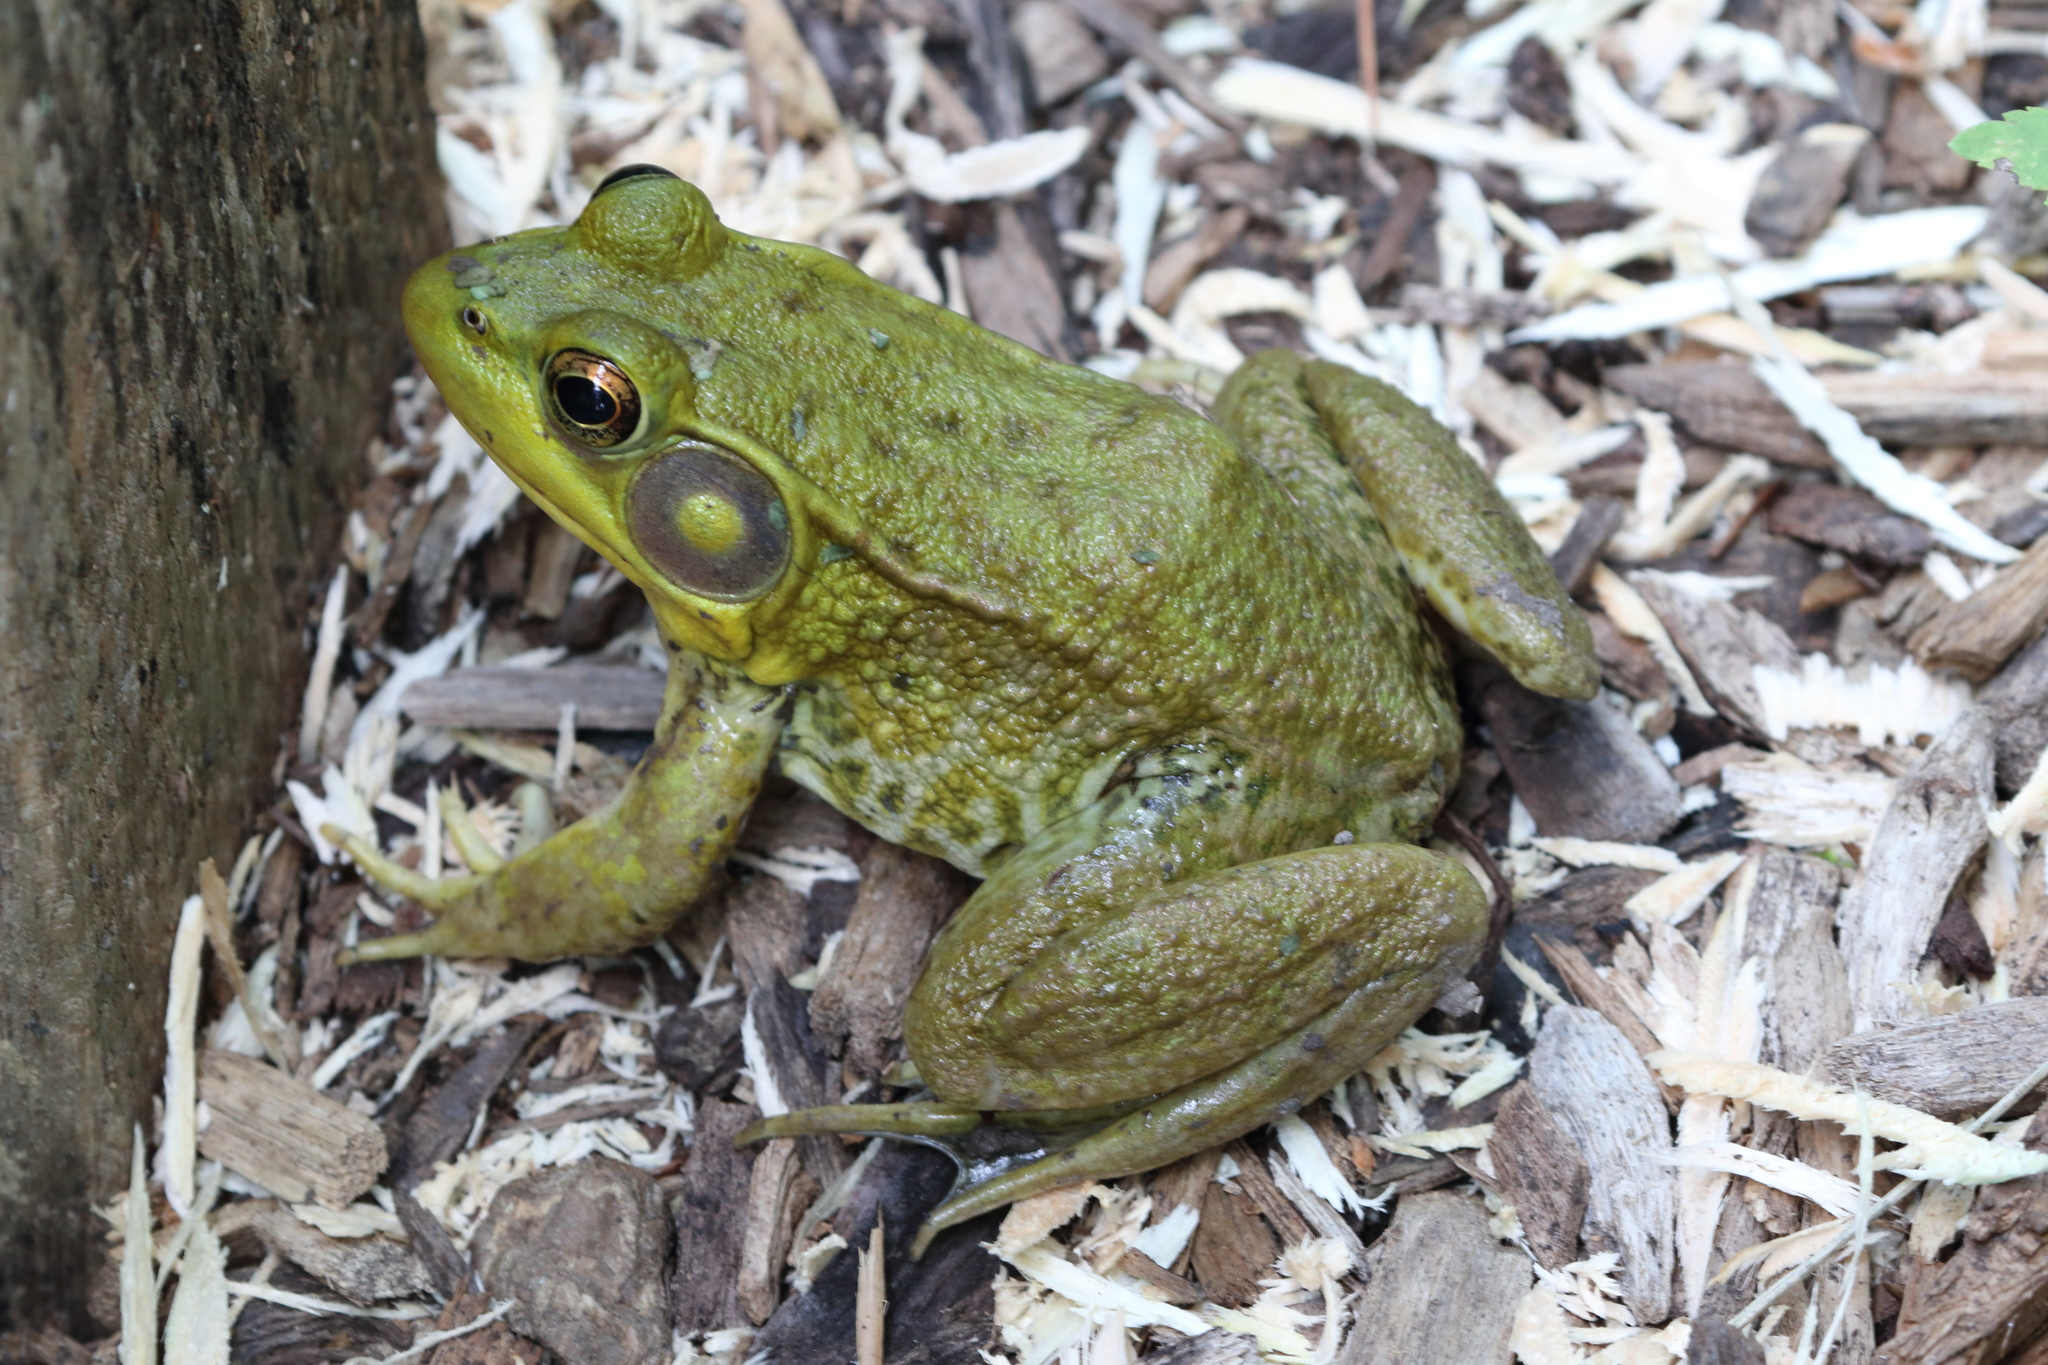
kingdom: Animalia
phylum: Chordata
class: Amphibia
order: Anura
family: Ranidae
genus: Lithobates
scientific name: Lithobates clamitans
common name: Green frog
